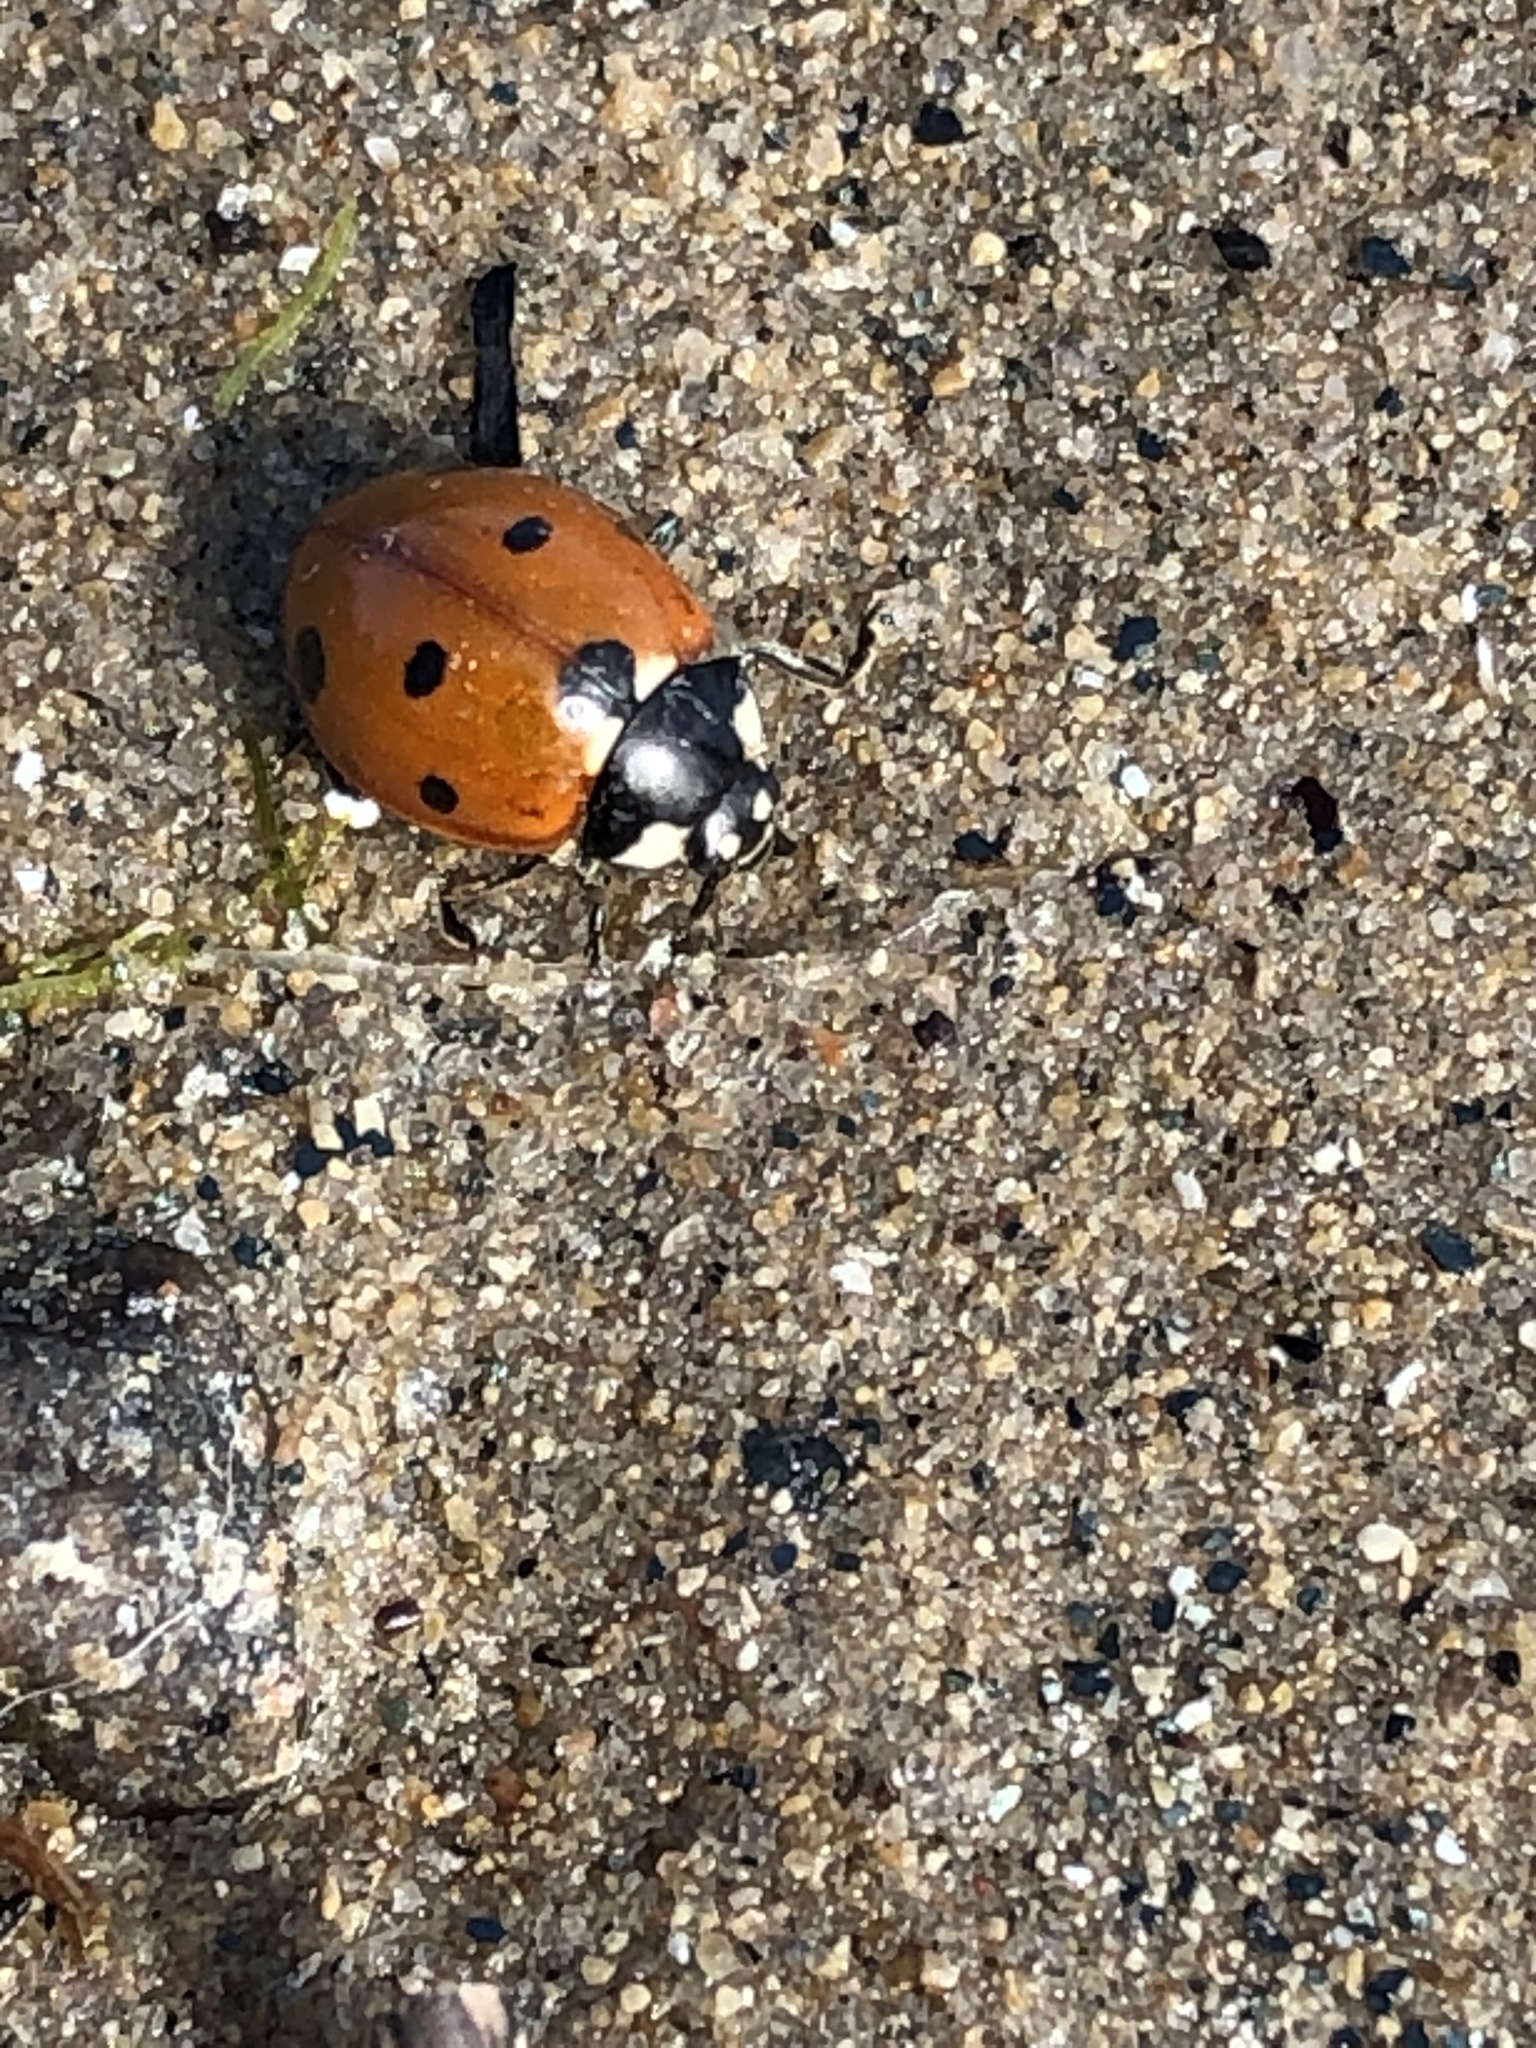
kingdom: Animalia
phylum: Arthropoda
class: Insecta
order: Coleoptera
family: Coccinellidae
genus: Coccinella
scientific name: Coccinella septempunctata
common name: Sevenspotted lady beetle
